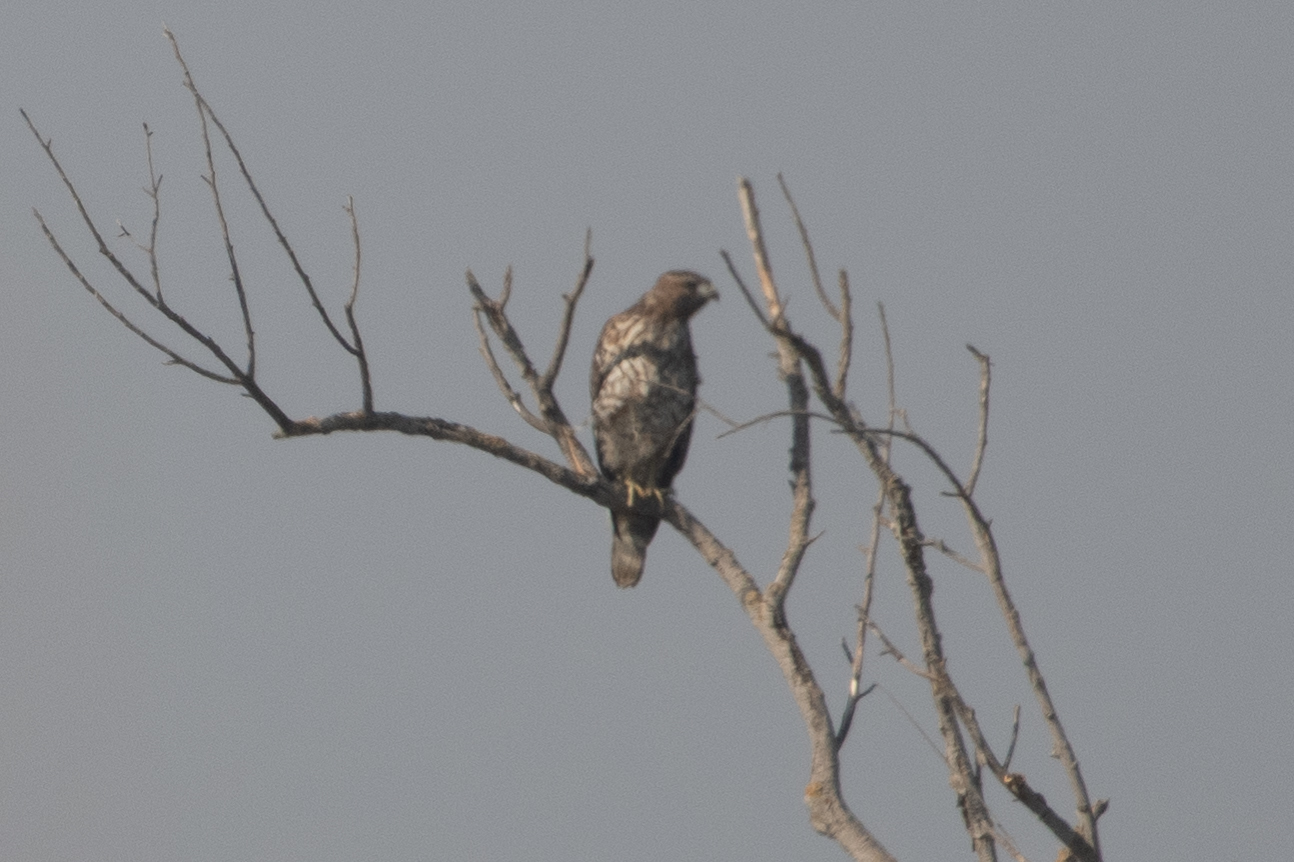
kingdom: Animalia
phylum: Chordata
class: Aves
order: Accipitriformes
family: Accipitridae
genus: Buteo
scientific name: Buteo lineatus
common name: Red-shouldered hawk
